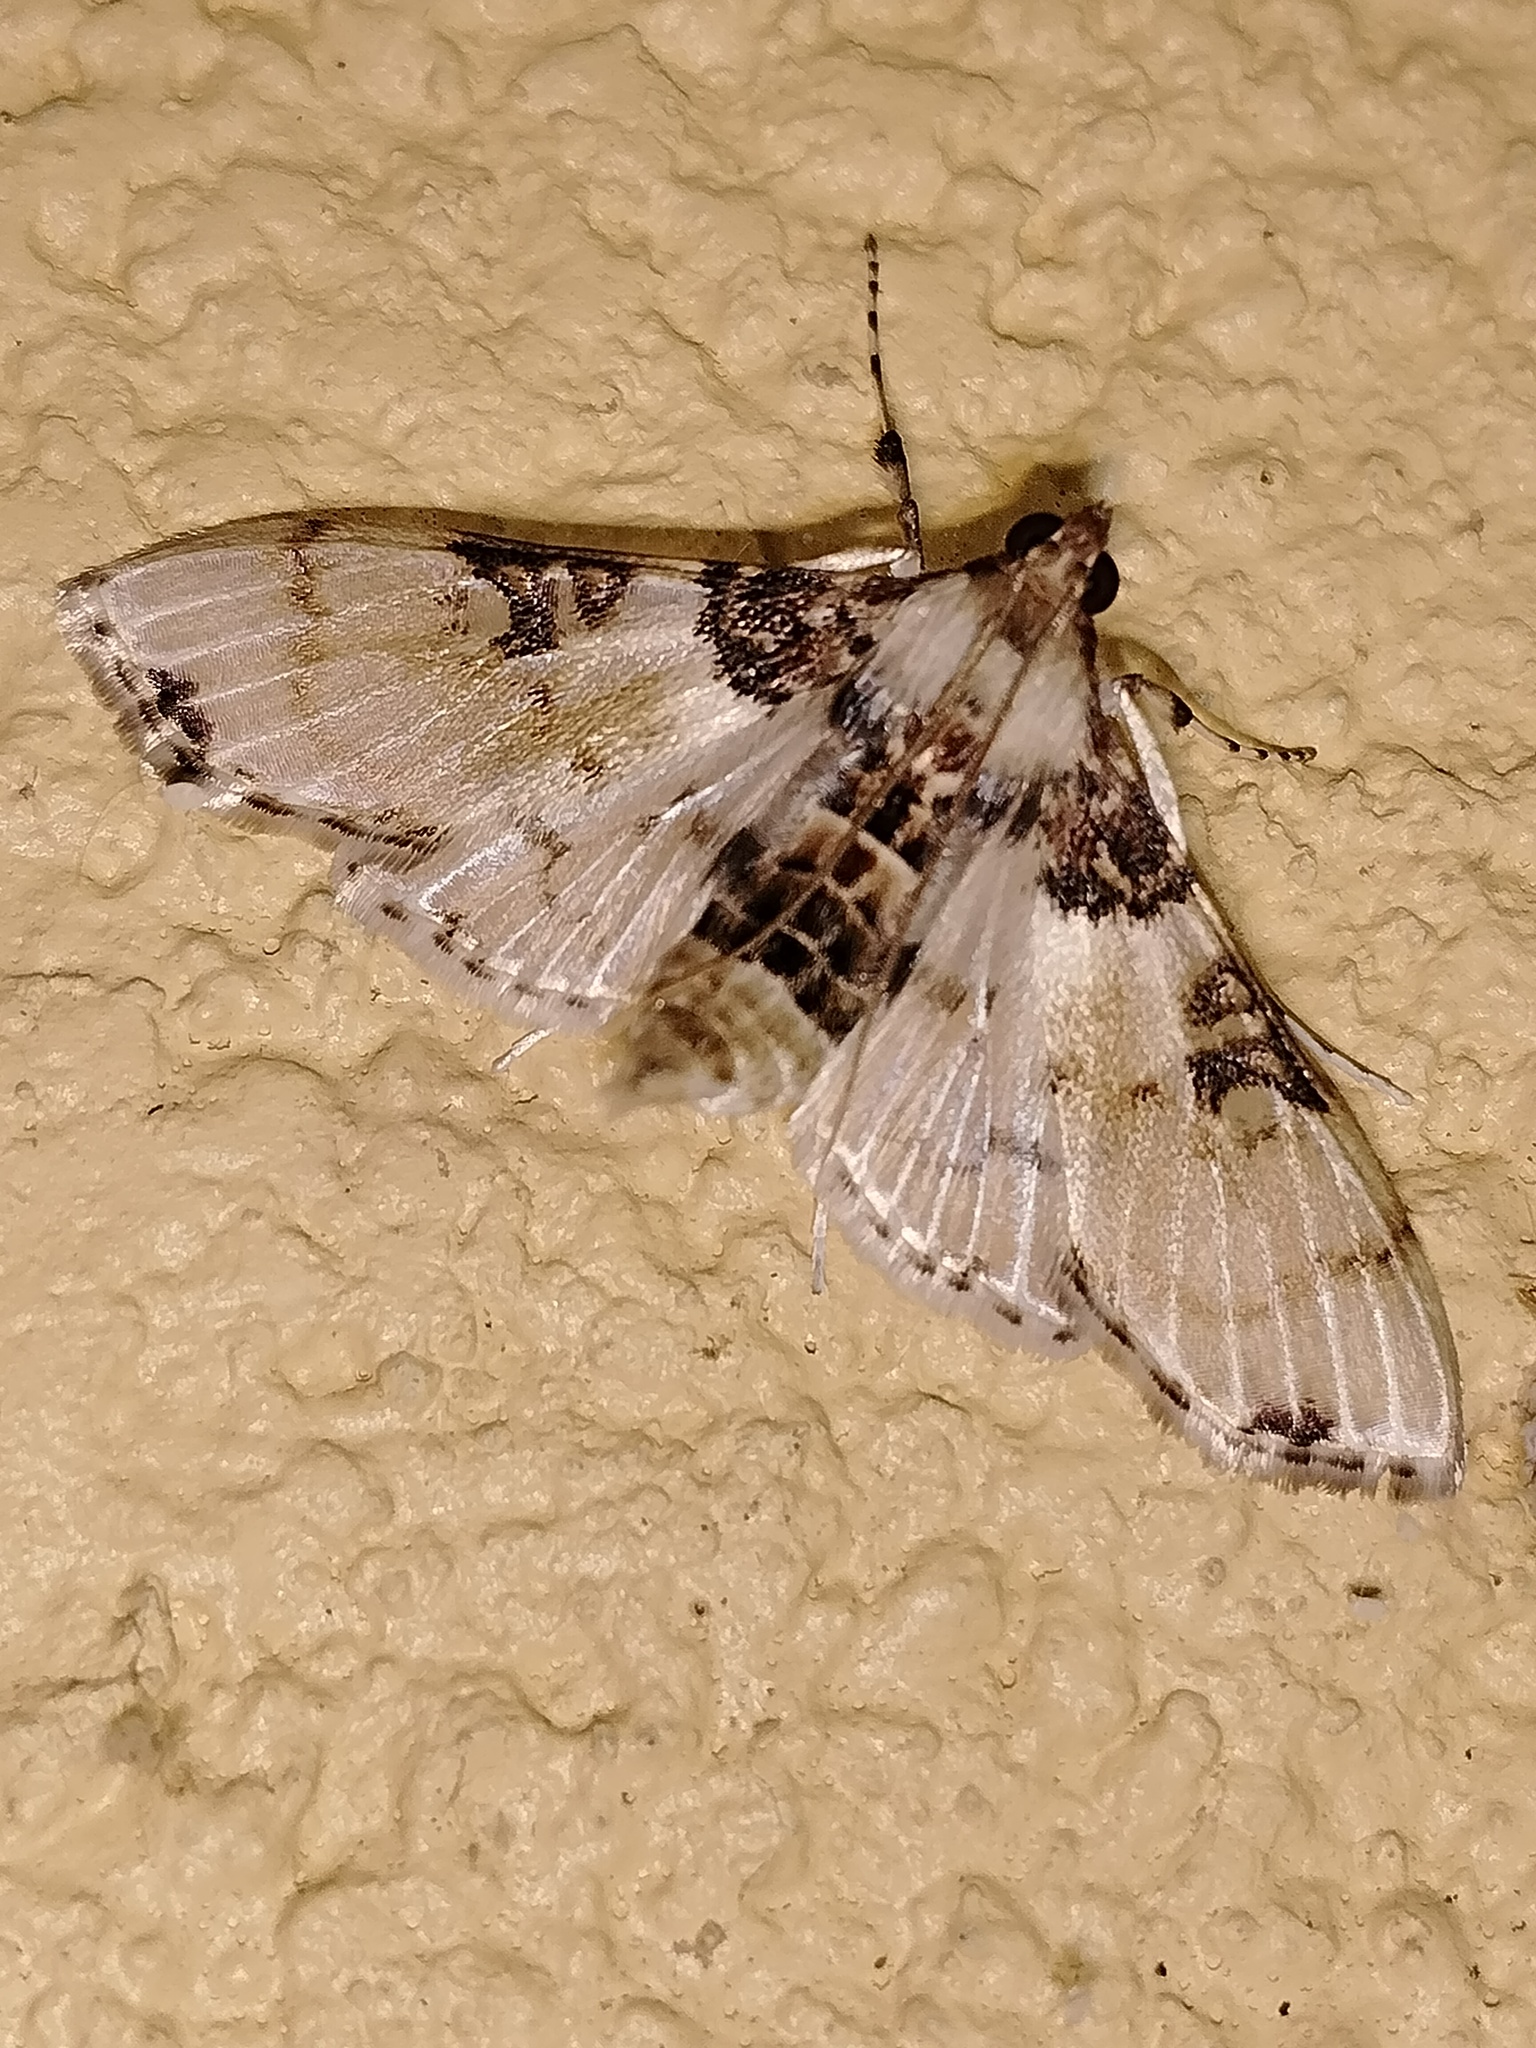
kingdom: Animalia
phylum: Arthropoda
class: Insecta
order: Lepidoptera
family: Crambidae
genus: Azochis
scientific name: Azochis rufidiscalis
